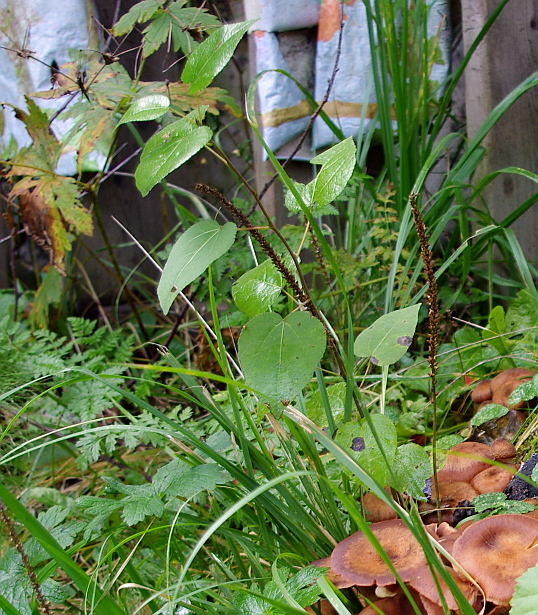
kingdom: Plantae
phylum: Tracheophyta
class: Magnoliopsida
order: Malpighiales
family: Salicaceae
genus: Populus
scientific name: Populus tremula
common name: European aspen
